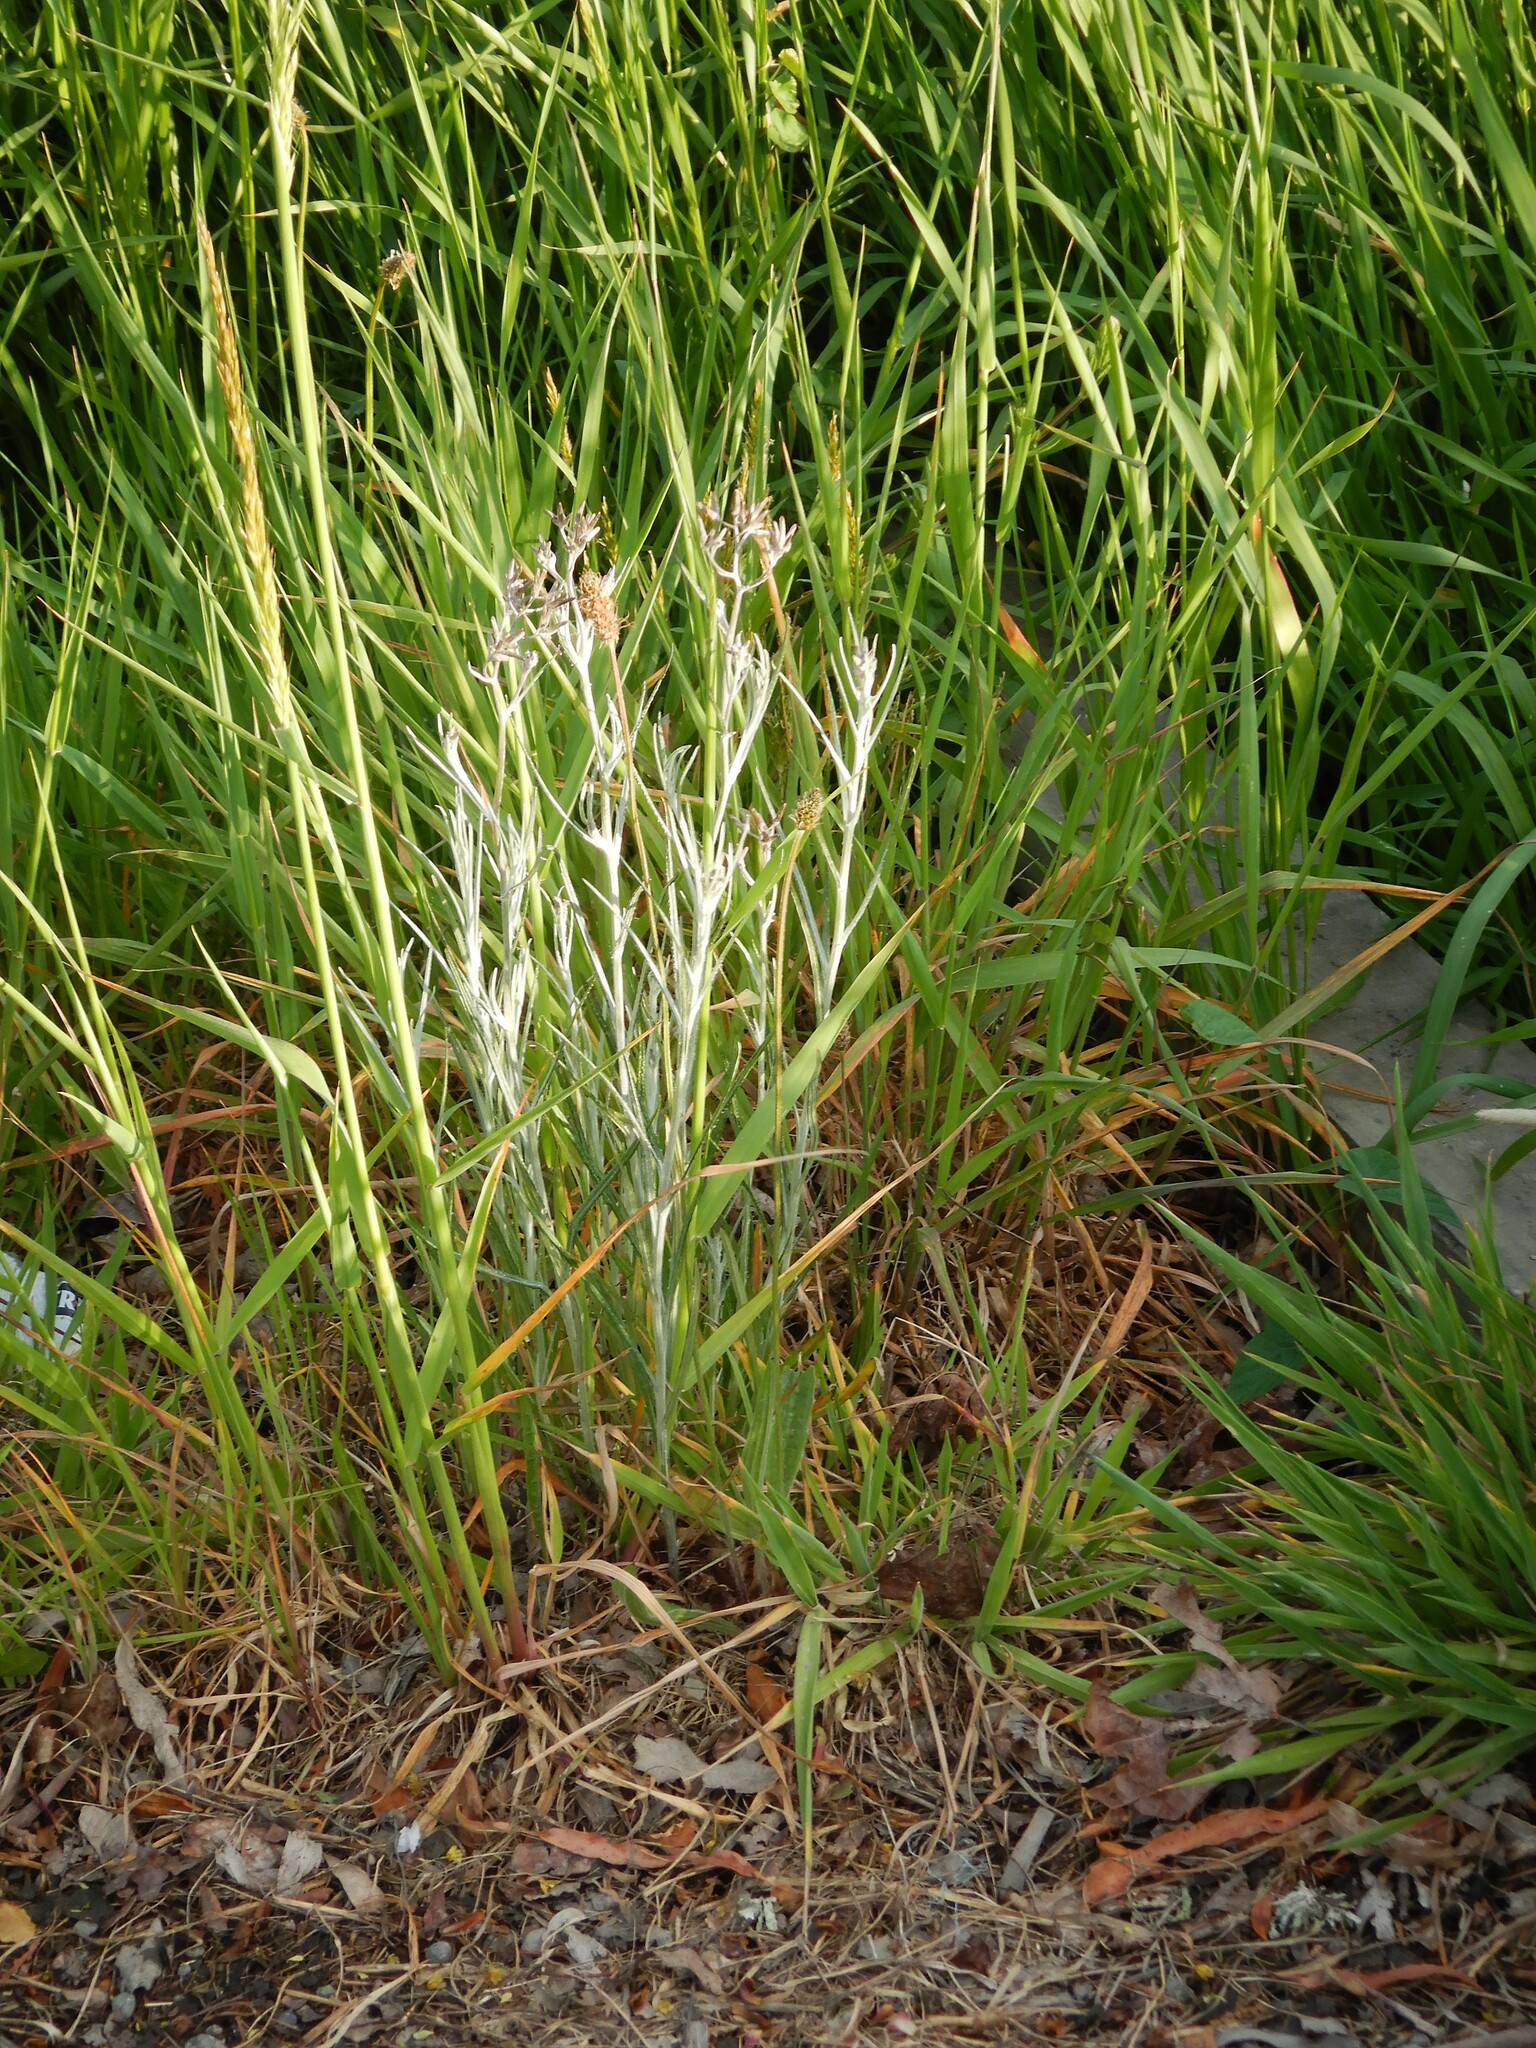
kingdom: Plantae
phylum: Tracheophyta
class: Magnoliopsida
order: Asterales
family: Asteraceae
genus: Senecio
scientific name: Senecio quadridentatus
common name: Cotton fireweed
